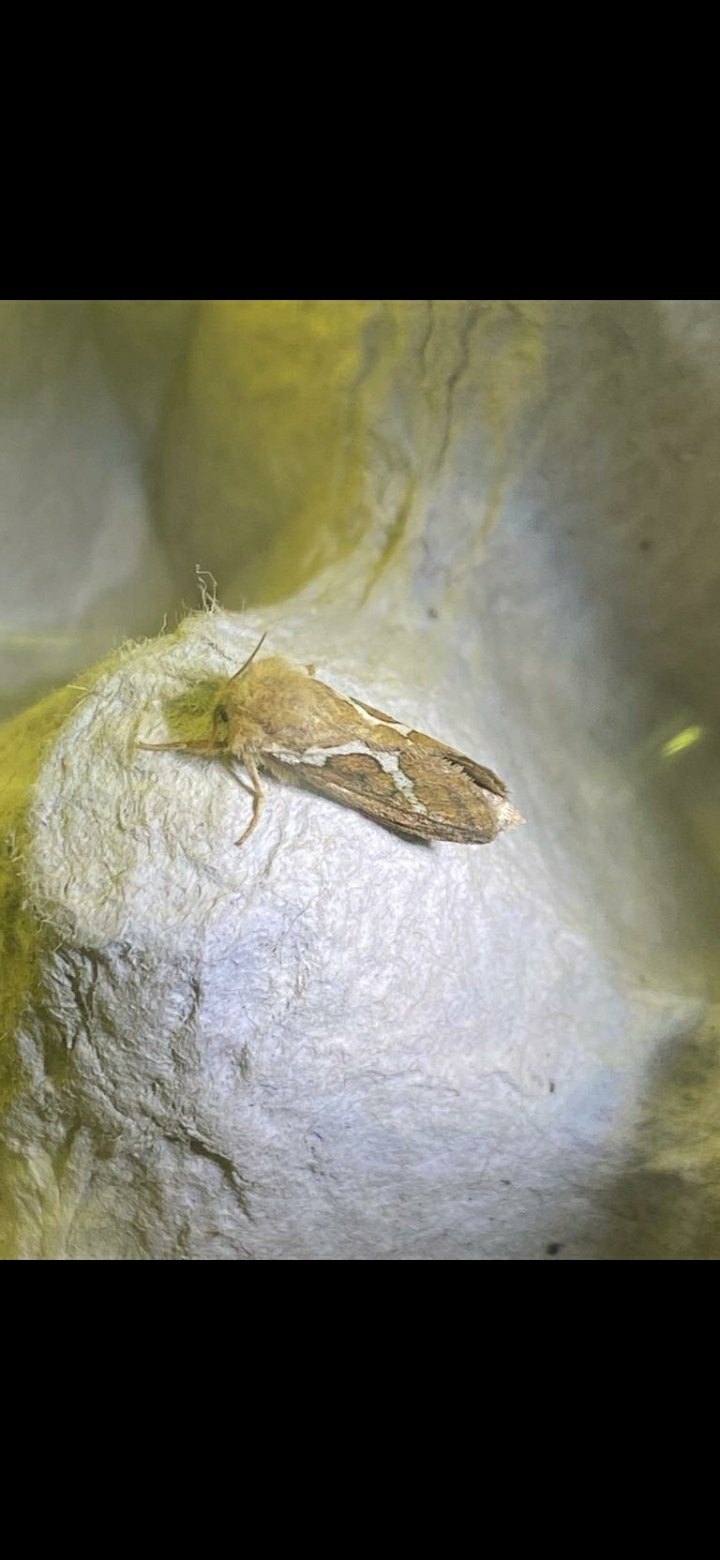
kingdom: Animalia
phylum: Arthropoda
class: Insecta
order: Lepidoptera
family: Hepialidae
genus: Korscheltellus
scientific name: Korscheltellus lupulina
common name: Common swift
